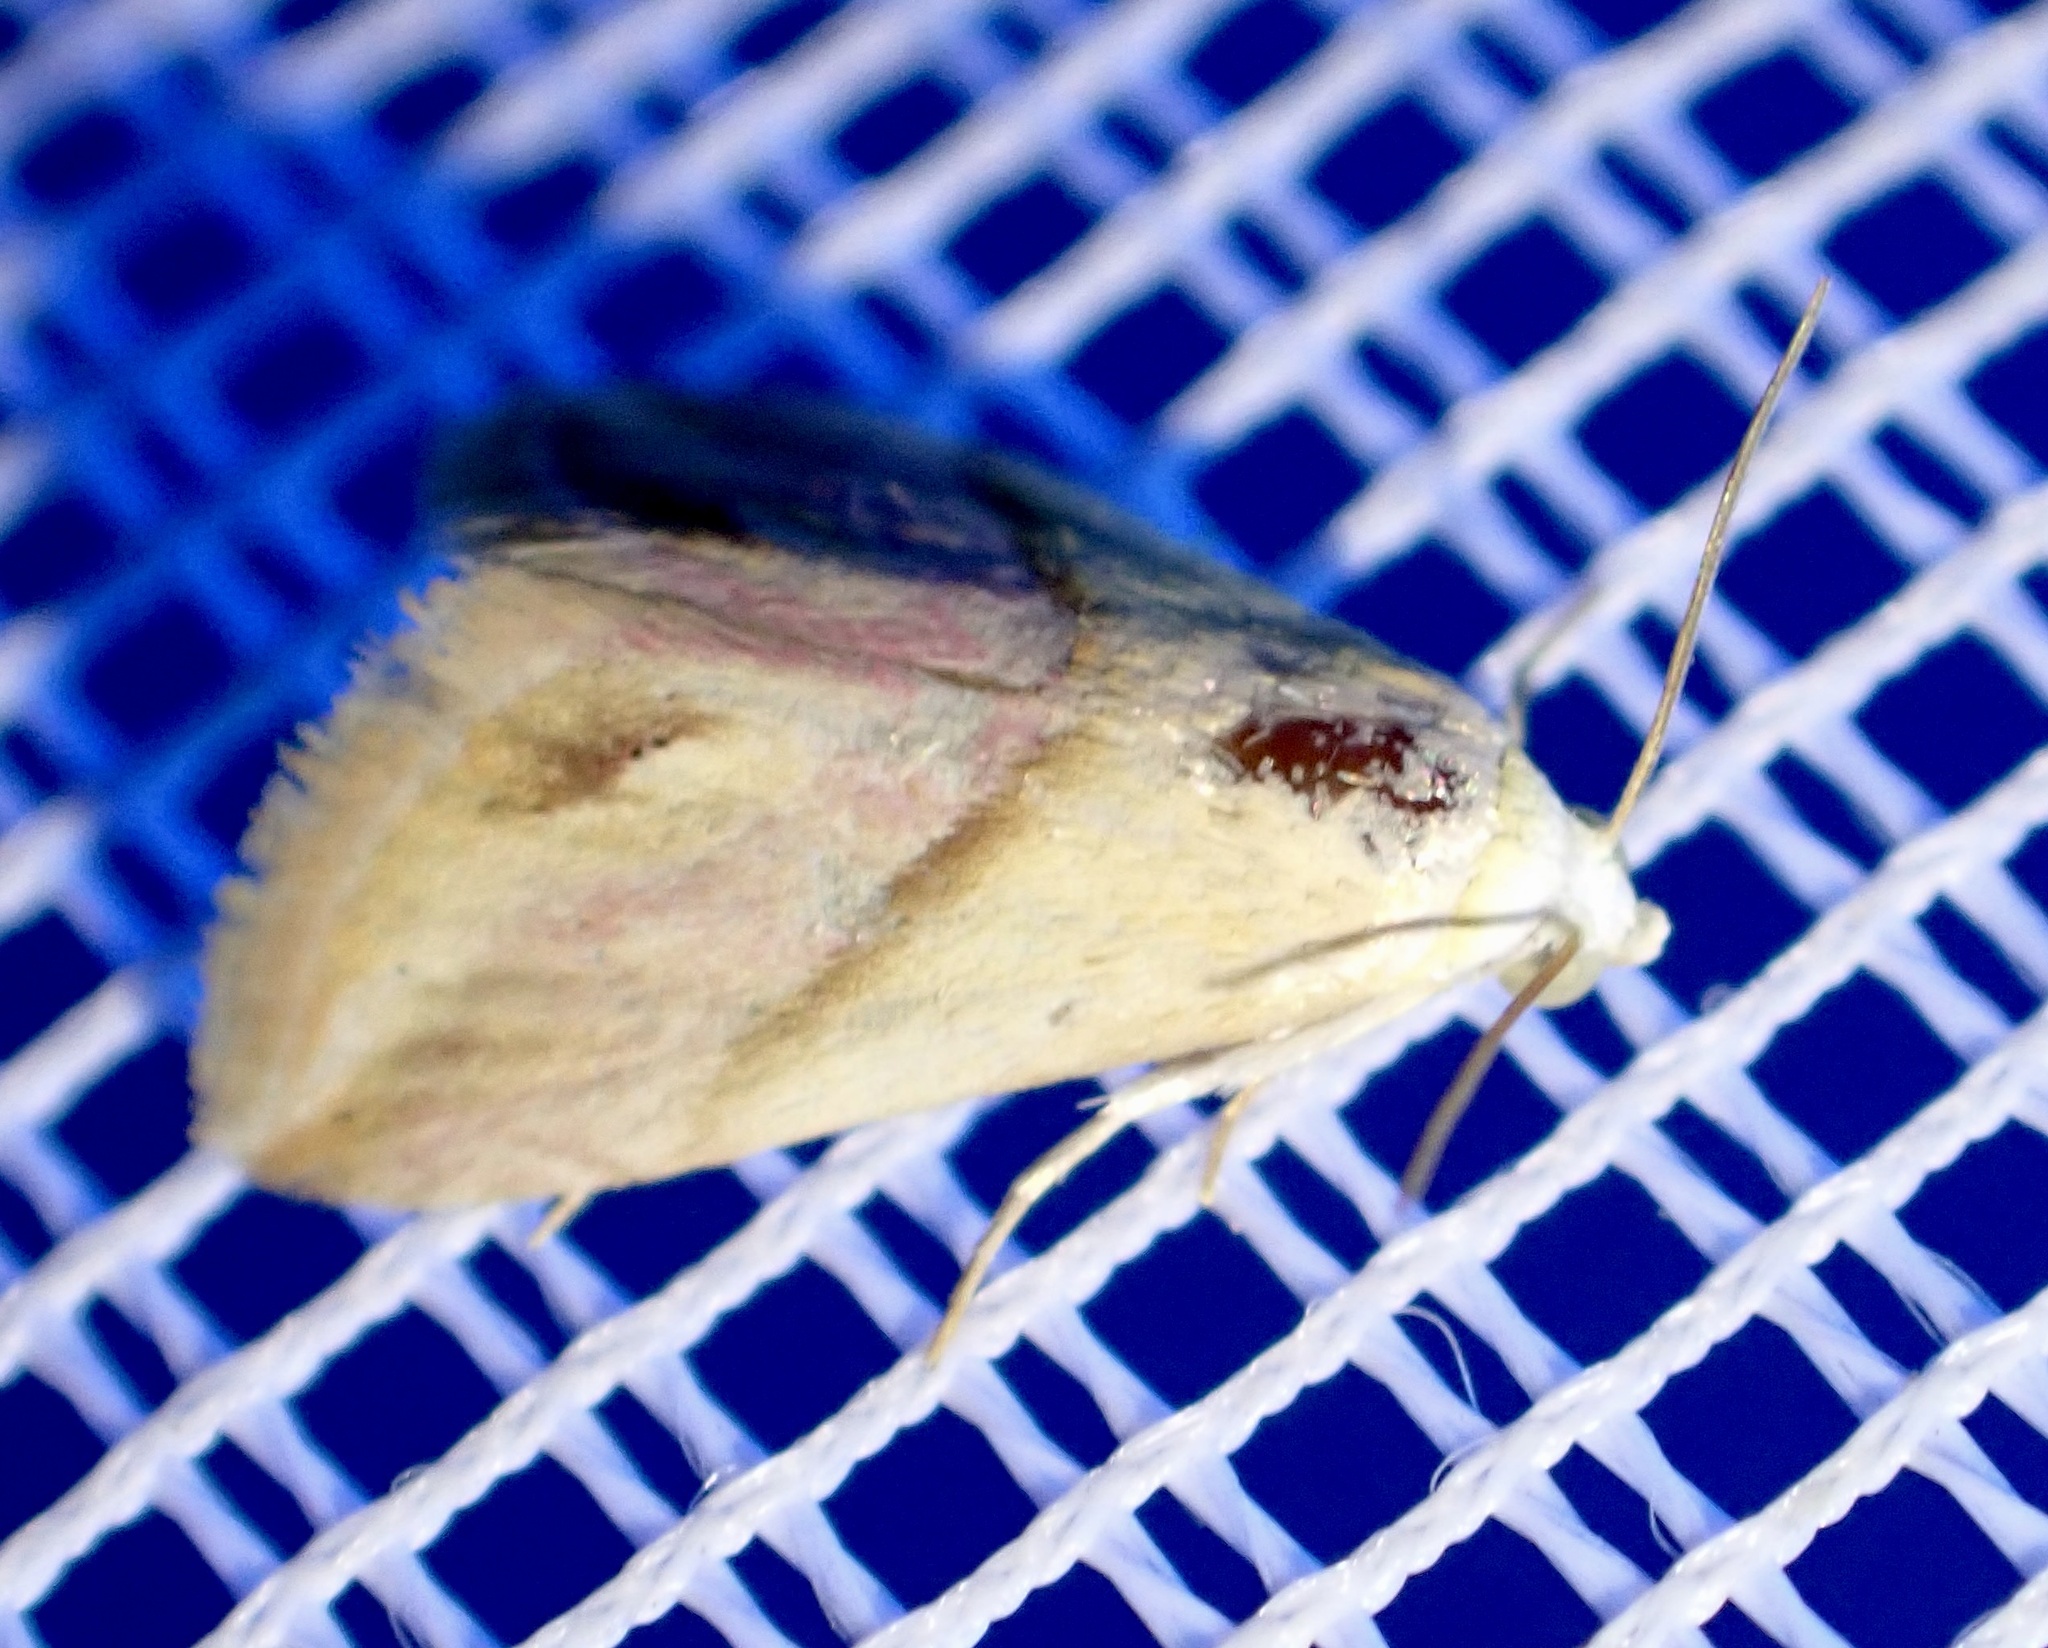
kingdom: Animalia
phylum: Arthropoda
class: Insecta
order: Lepidoptera
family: Noctuidae
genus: Eublemma
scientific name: Eublemma cochylioides
